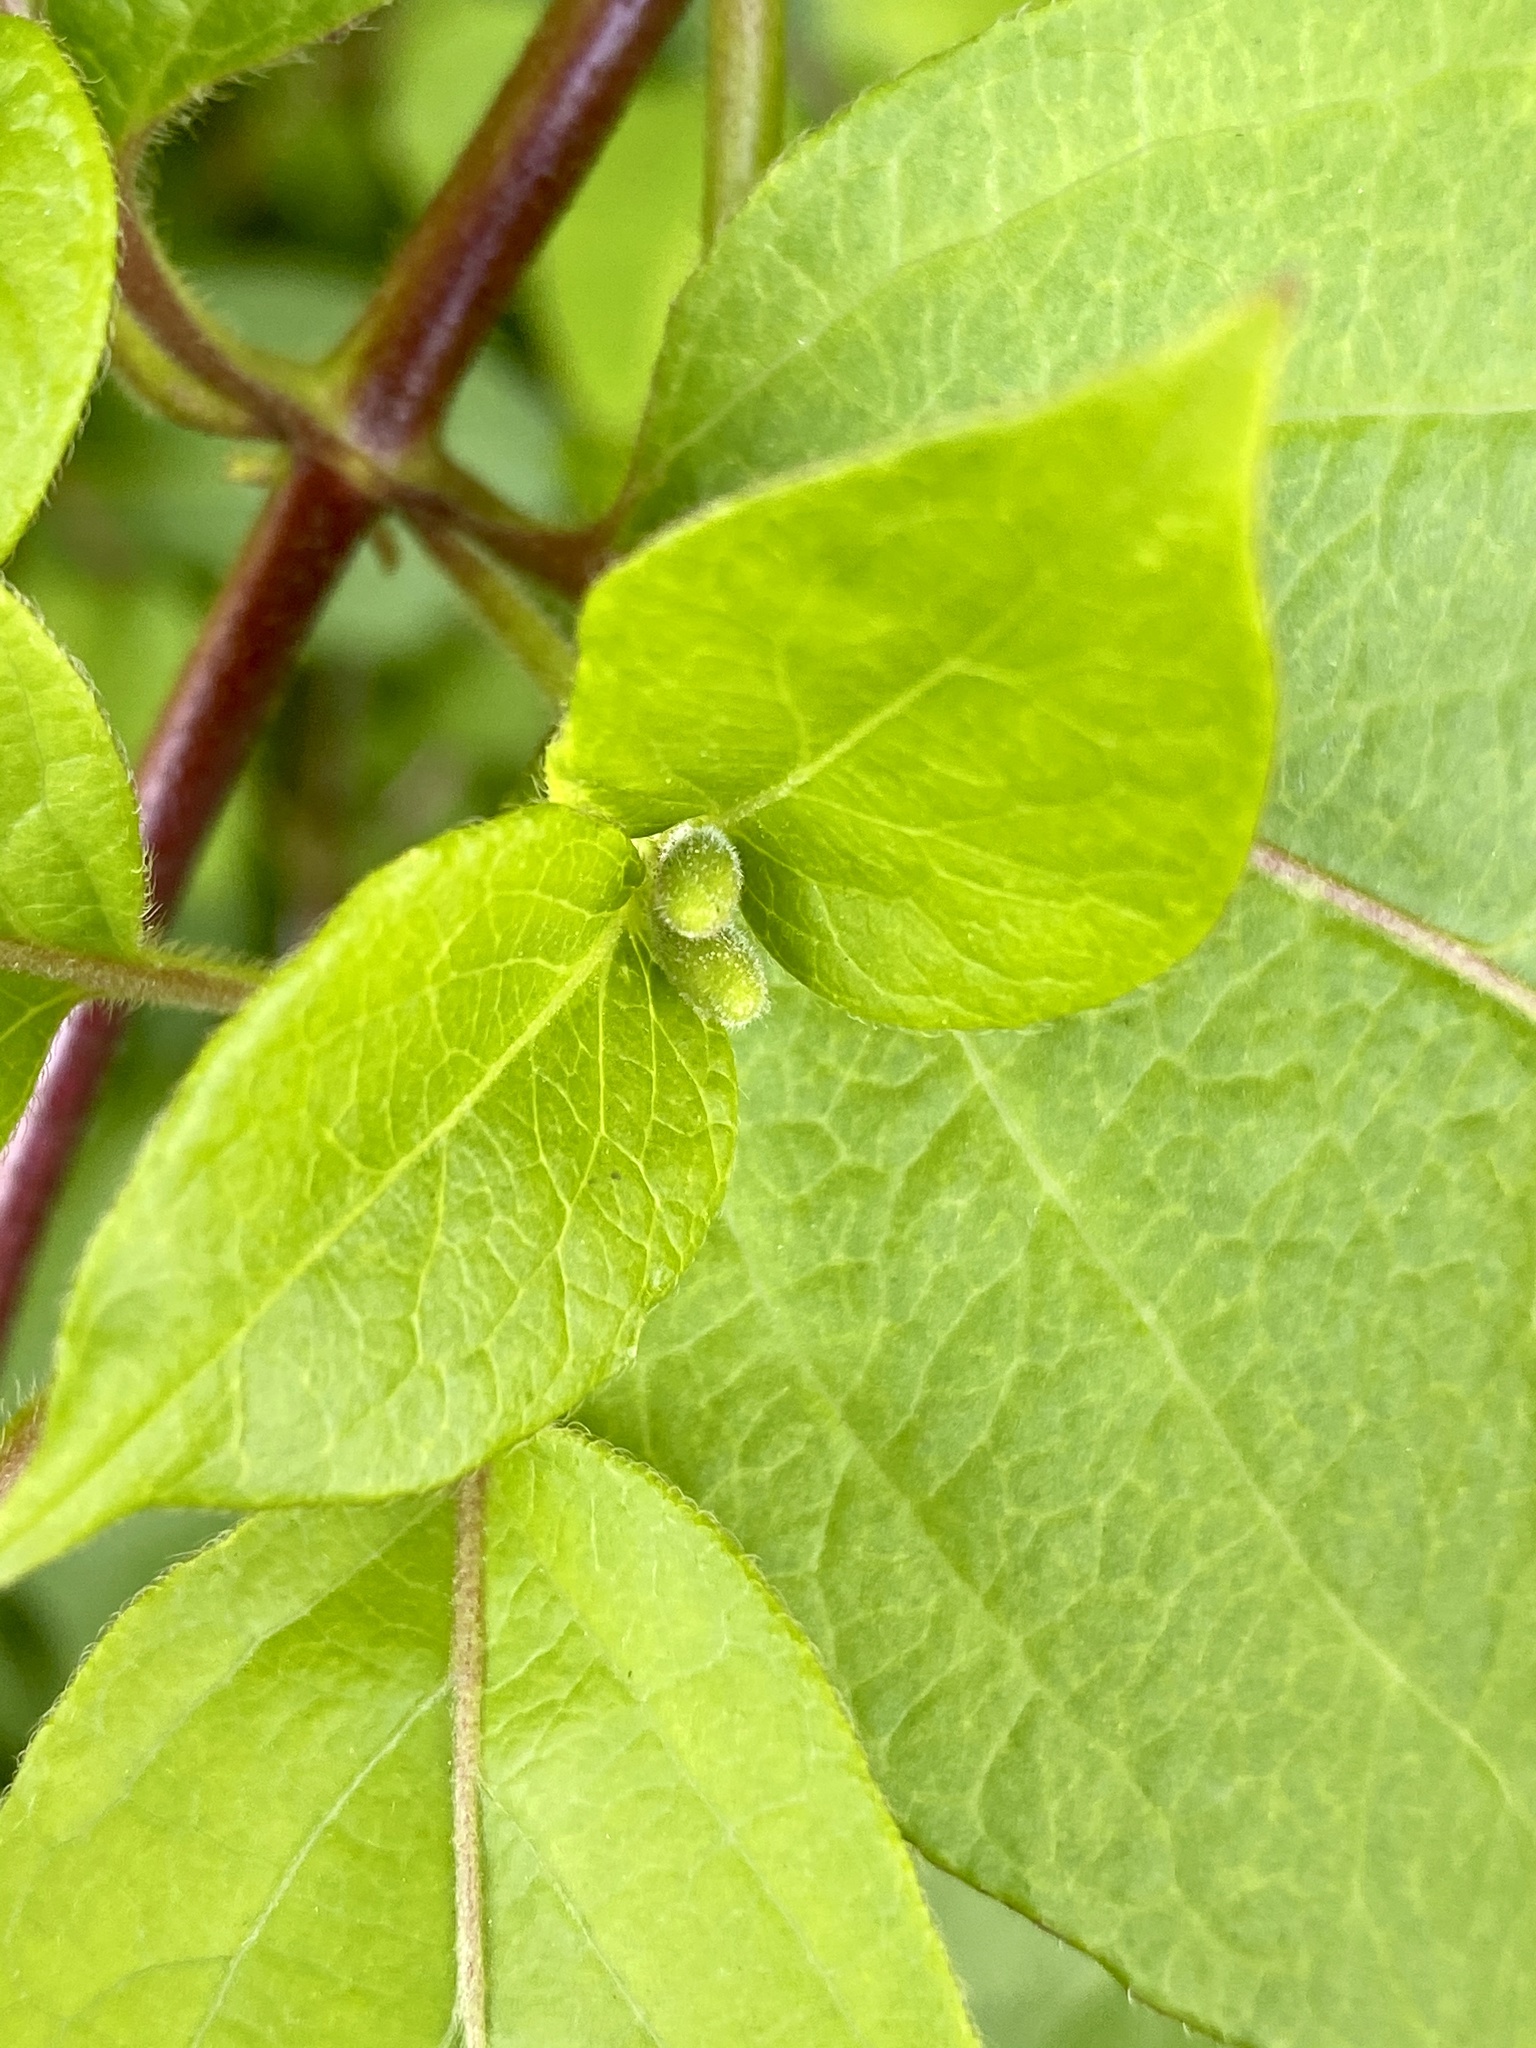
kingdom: Plantae
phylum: Tracheophyta
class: Magnoliopsida
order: Dipsacales
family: Caprifoliaceae
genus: Lonicera
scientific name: Lonicera japonica
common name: Japanese honeysuckle
